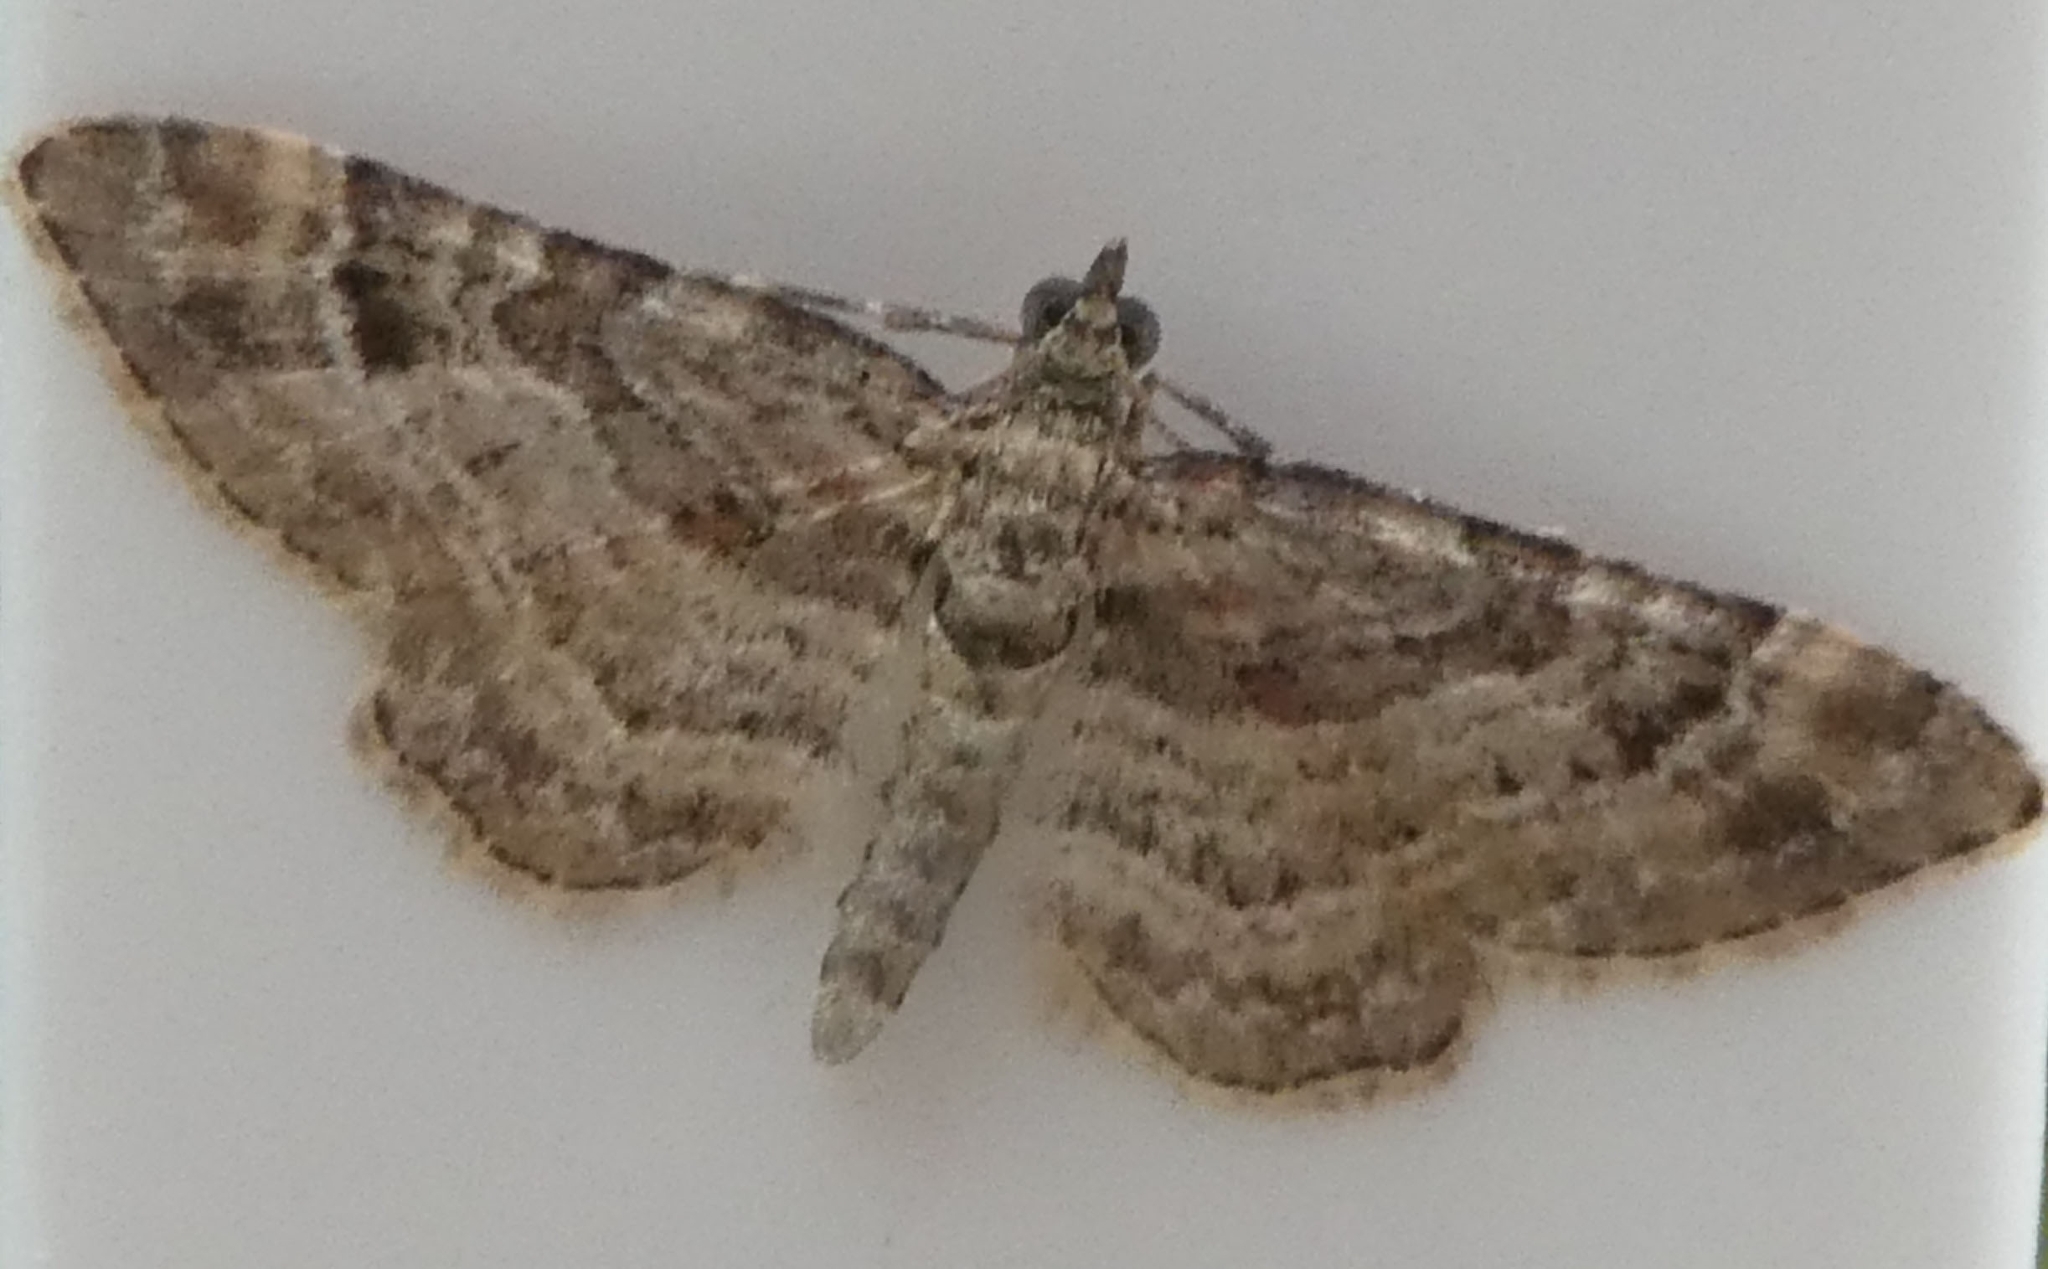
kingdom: Animalia
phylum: Arthropoda
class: Insecta
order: Lepidoptera
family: Geometridae
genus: Gymnoscelis
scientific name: Gymnoscelis rufifasciata
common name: Double-striped pug
